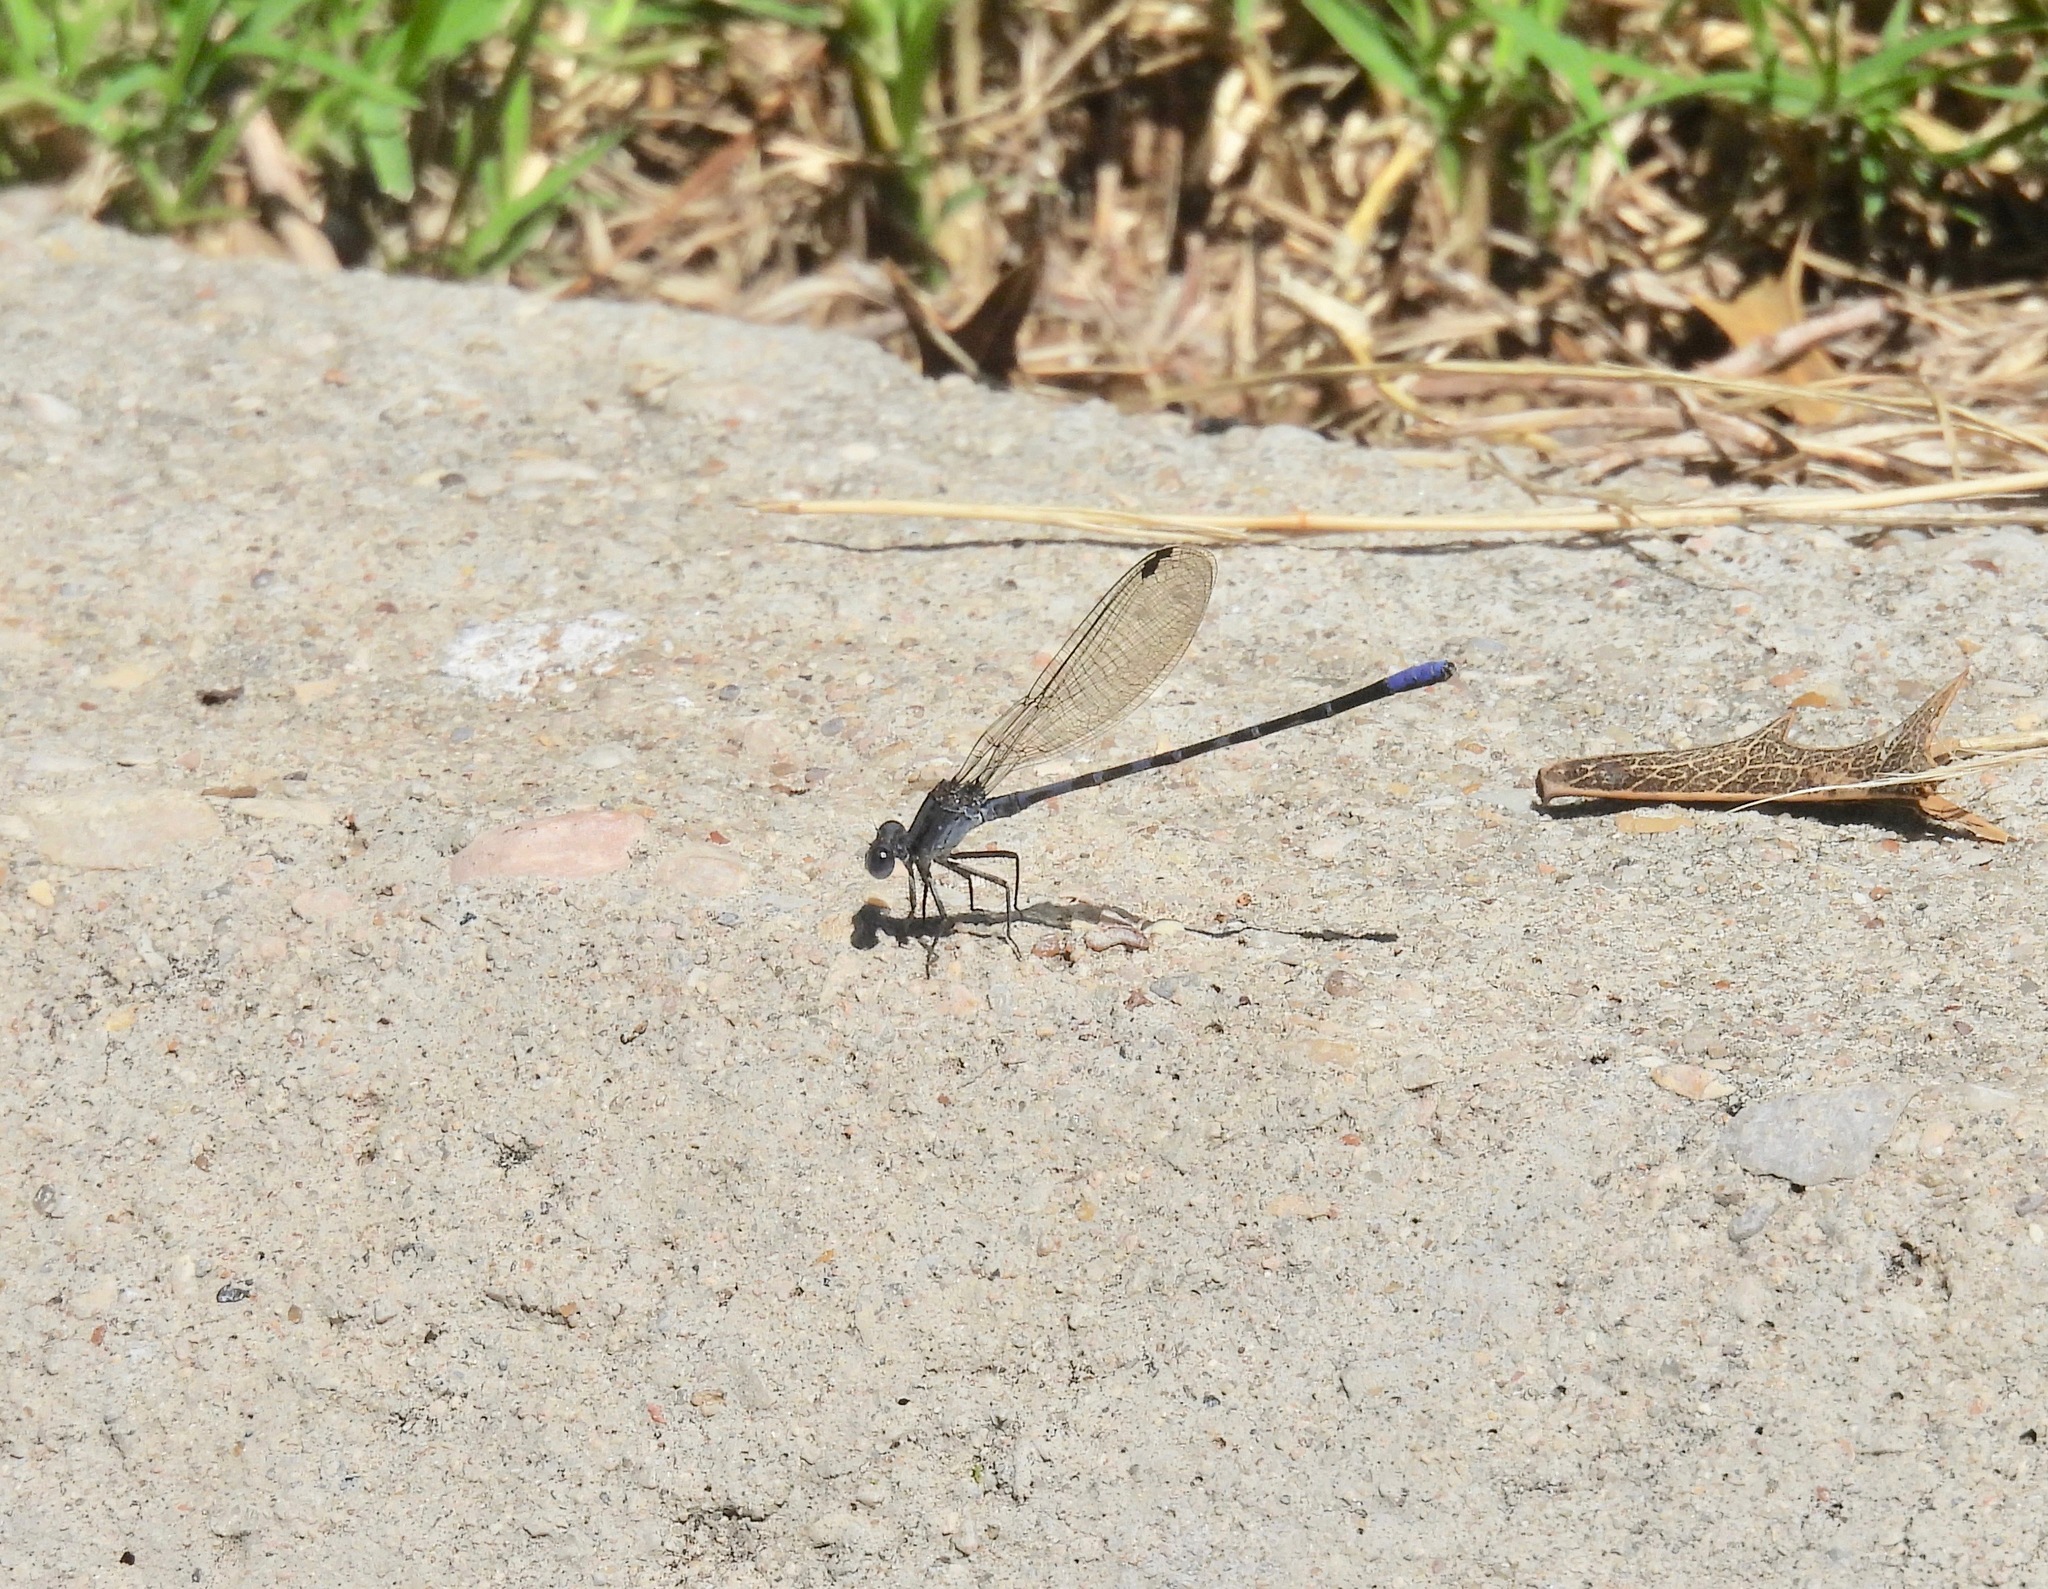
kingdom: Animalia
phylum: Arthropoda
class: Insecta
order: Odonata
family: Coenagrionidae
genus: Argia
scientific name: Argia immunda
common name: Kiowa dancer
